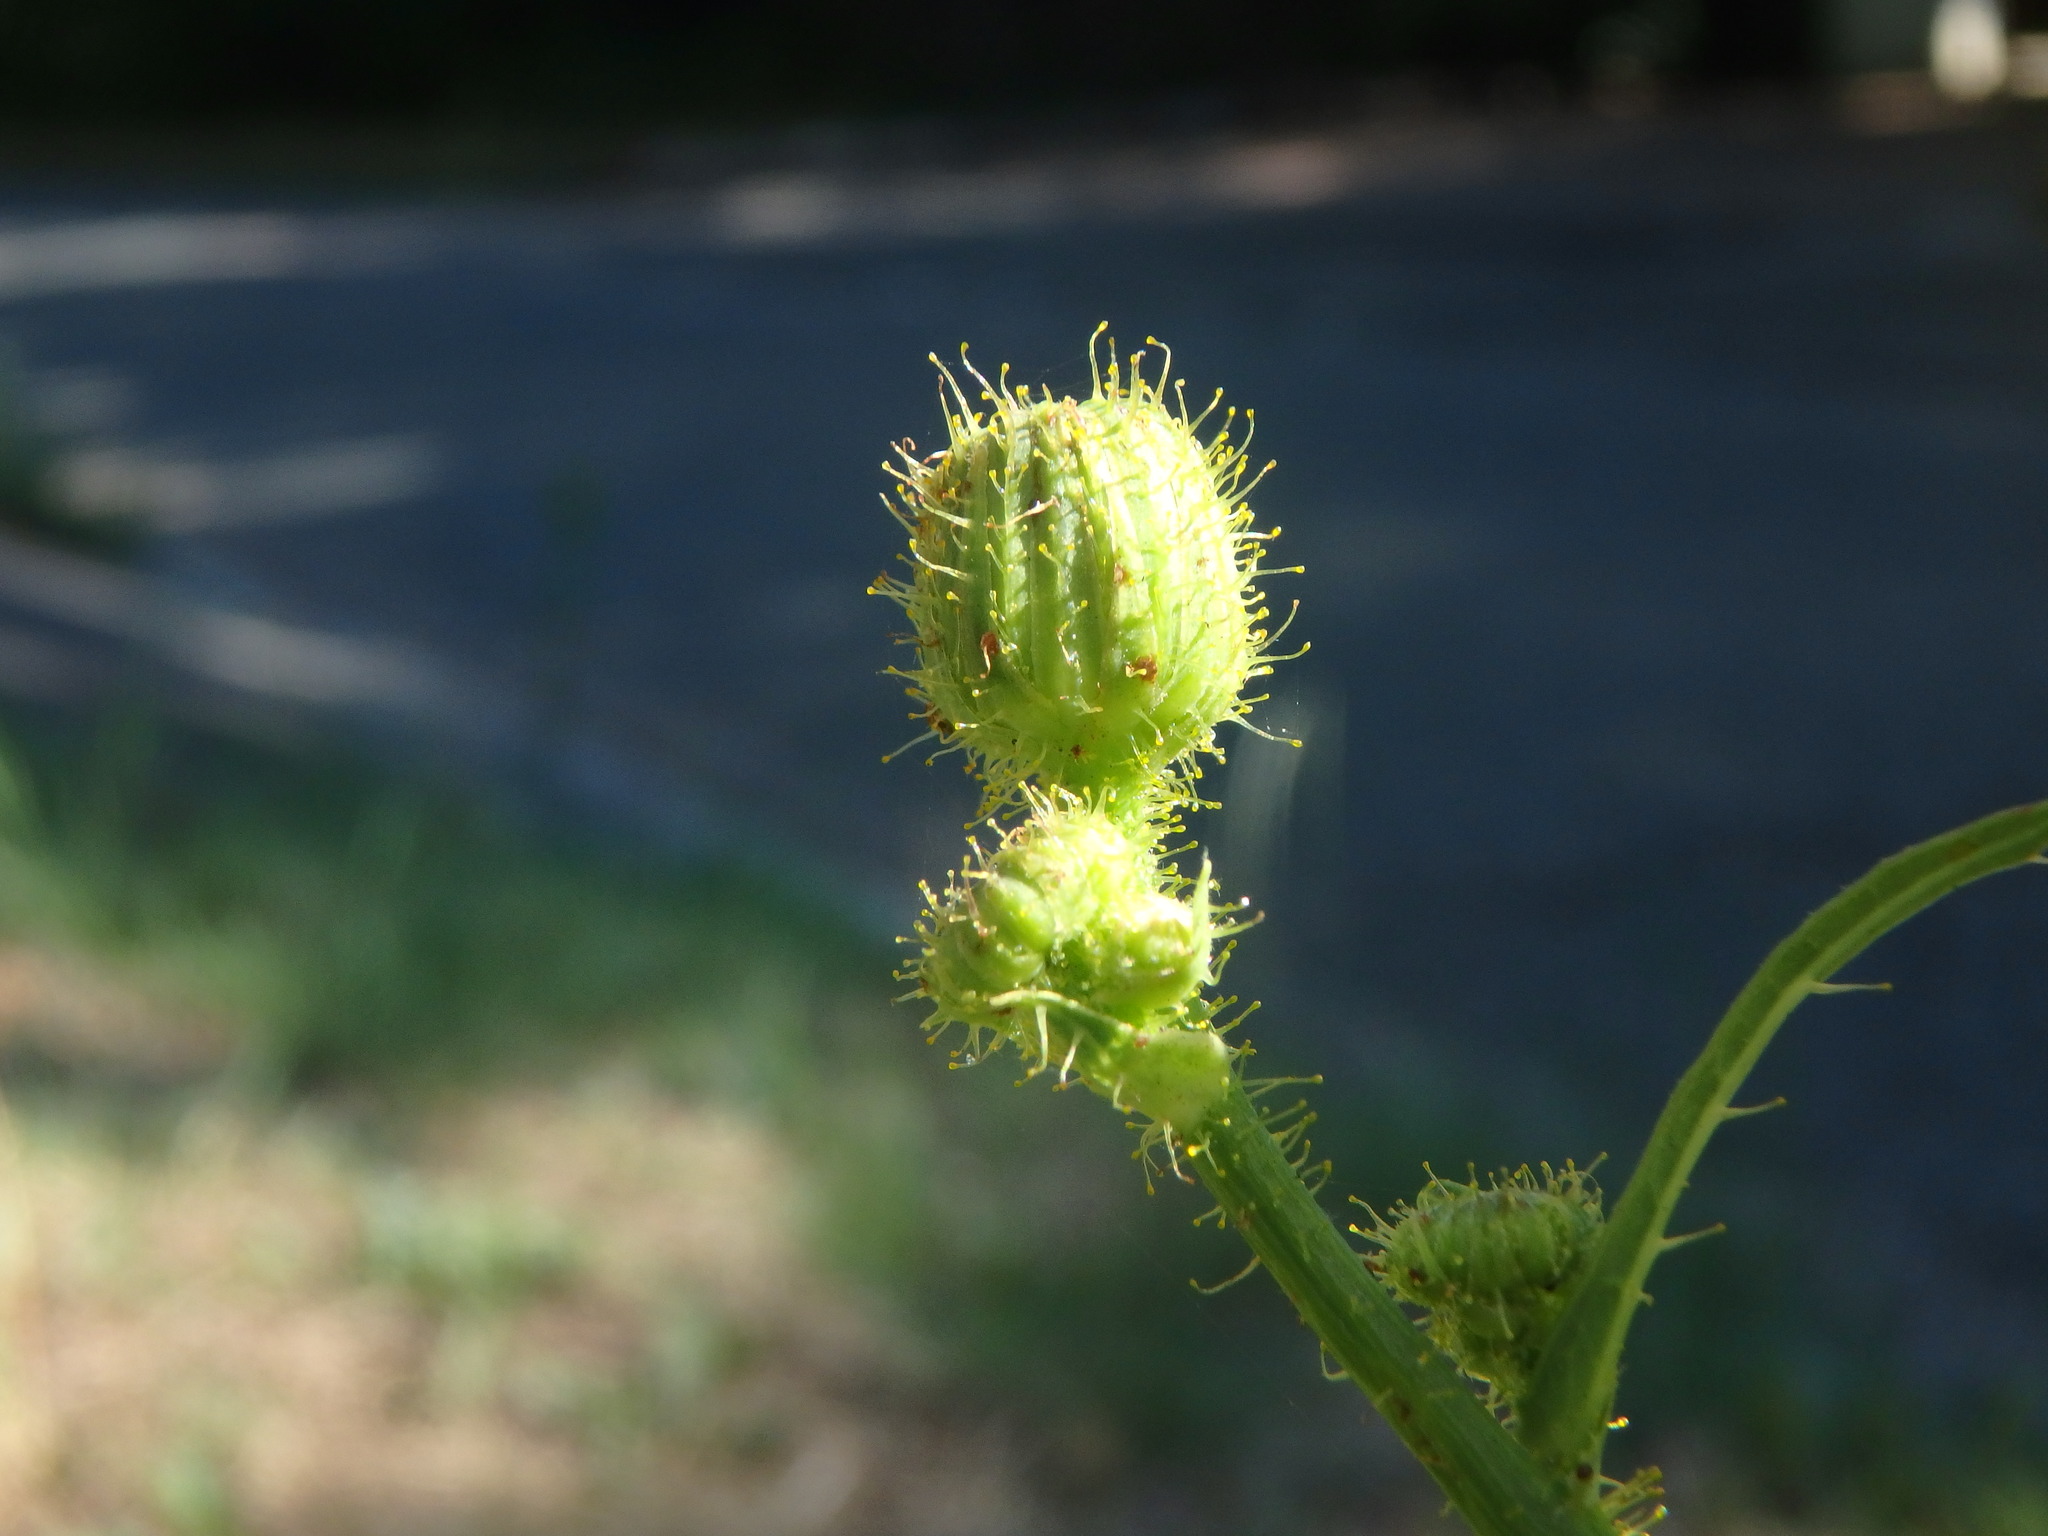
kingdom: Plantae
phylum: Tracheophyta
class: Magnoliopsida
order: Asterales
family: Asteraceae
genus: Sonchus
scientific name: Sonchus arvensis
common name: Perennial sow-thistle
